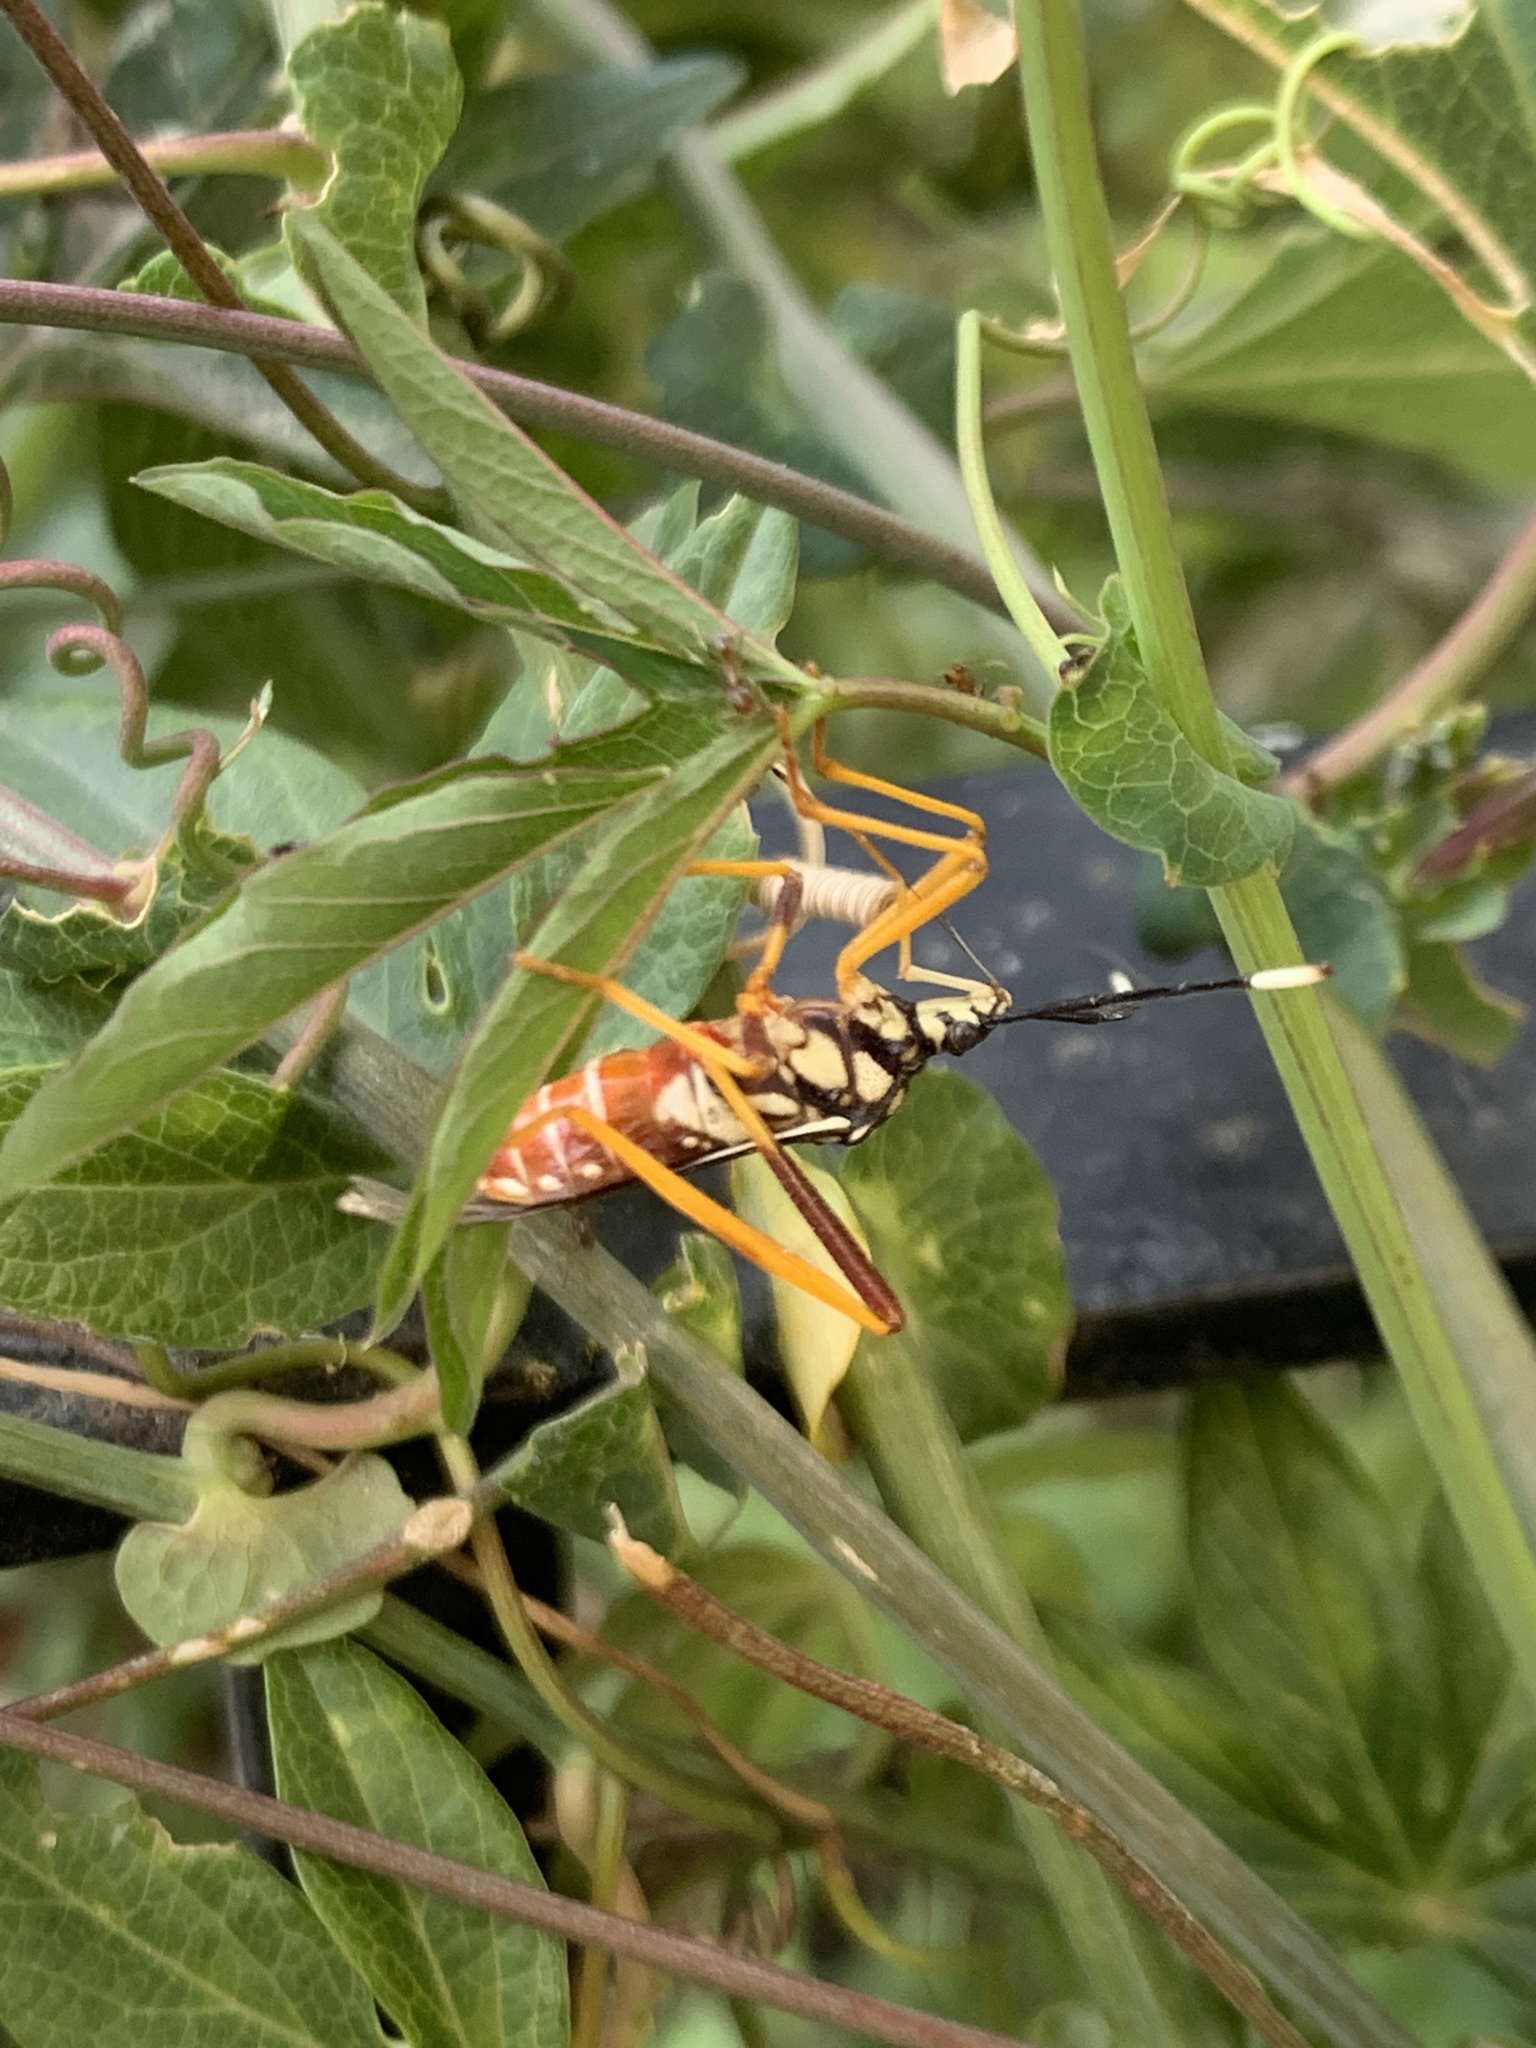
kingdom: Animalia
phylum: Arthropoda
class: Insecta
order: Hemiptera
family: Coreidae
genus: Holhymenia
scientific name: Holhymenia histrio
